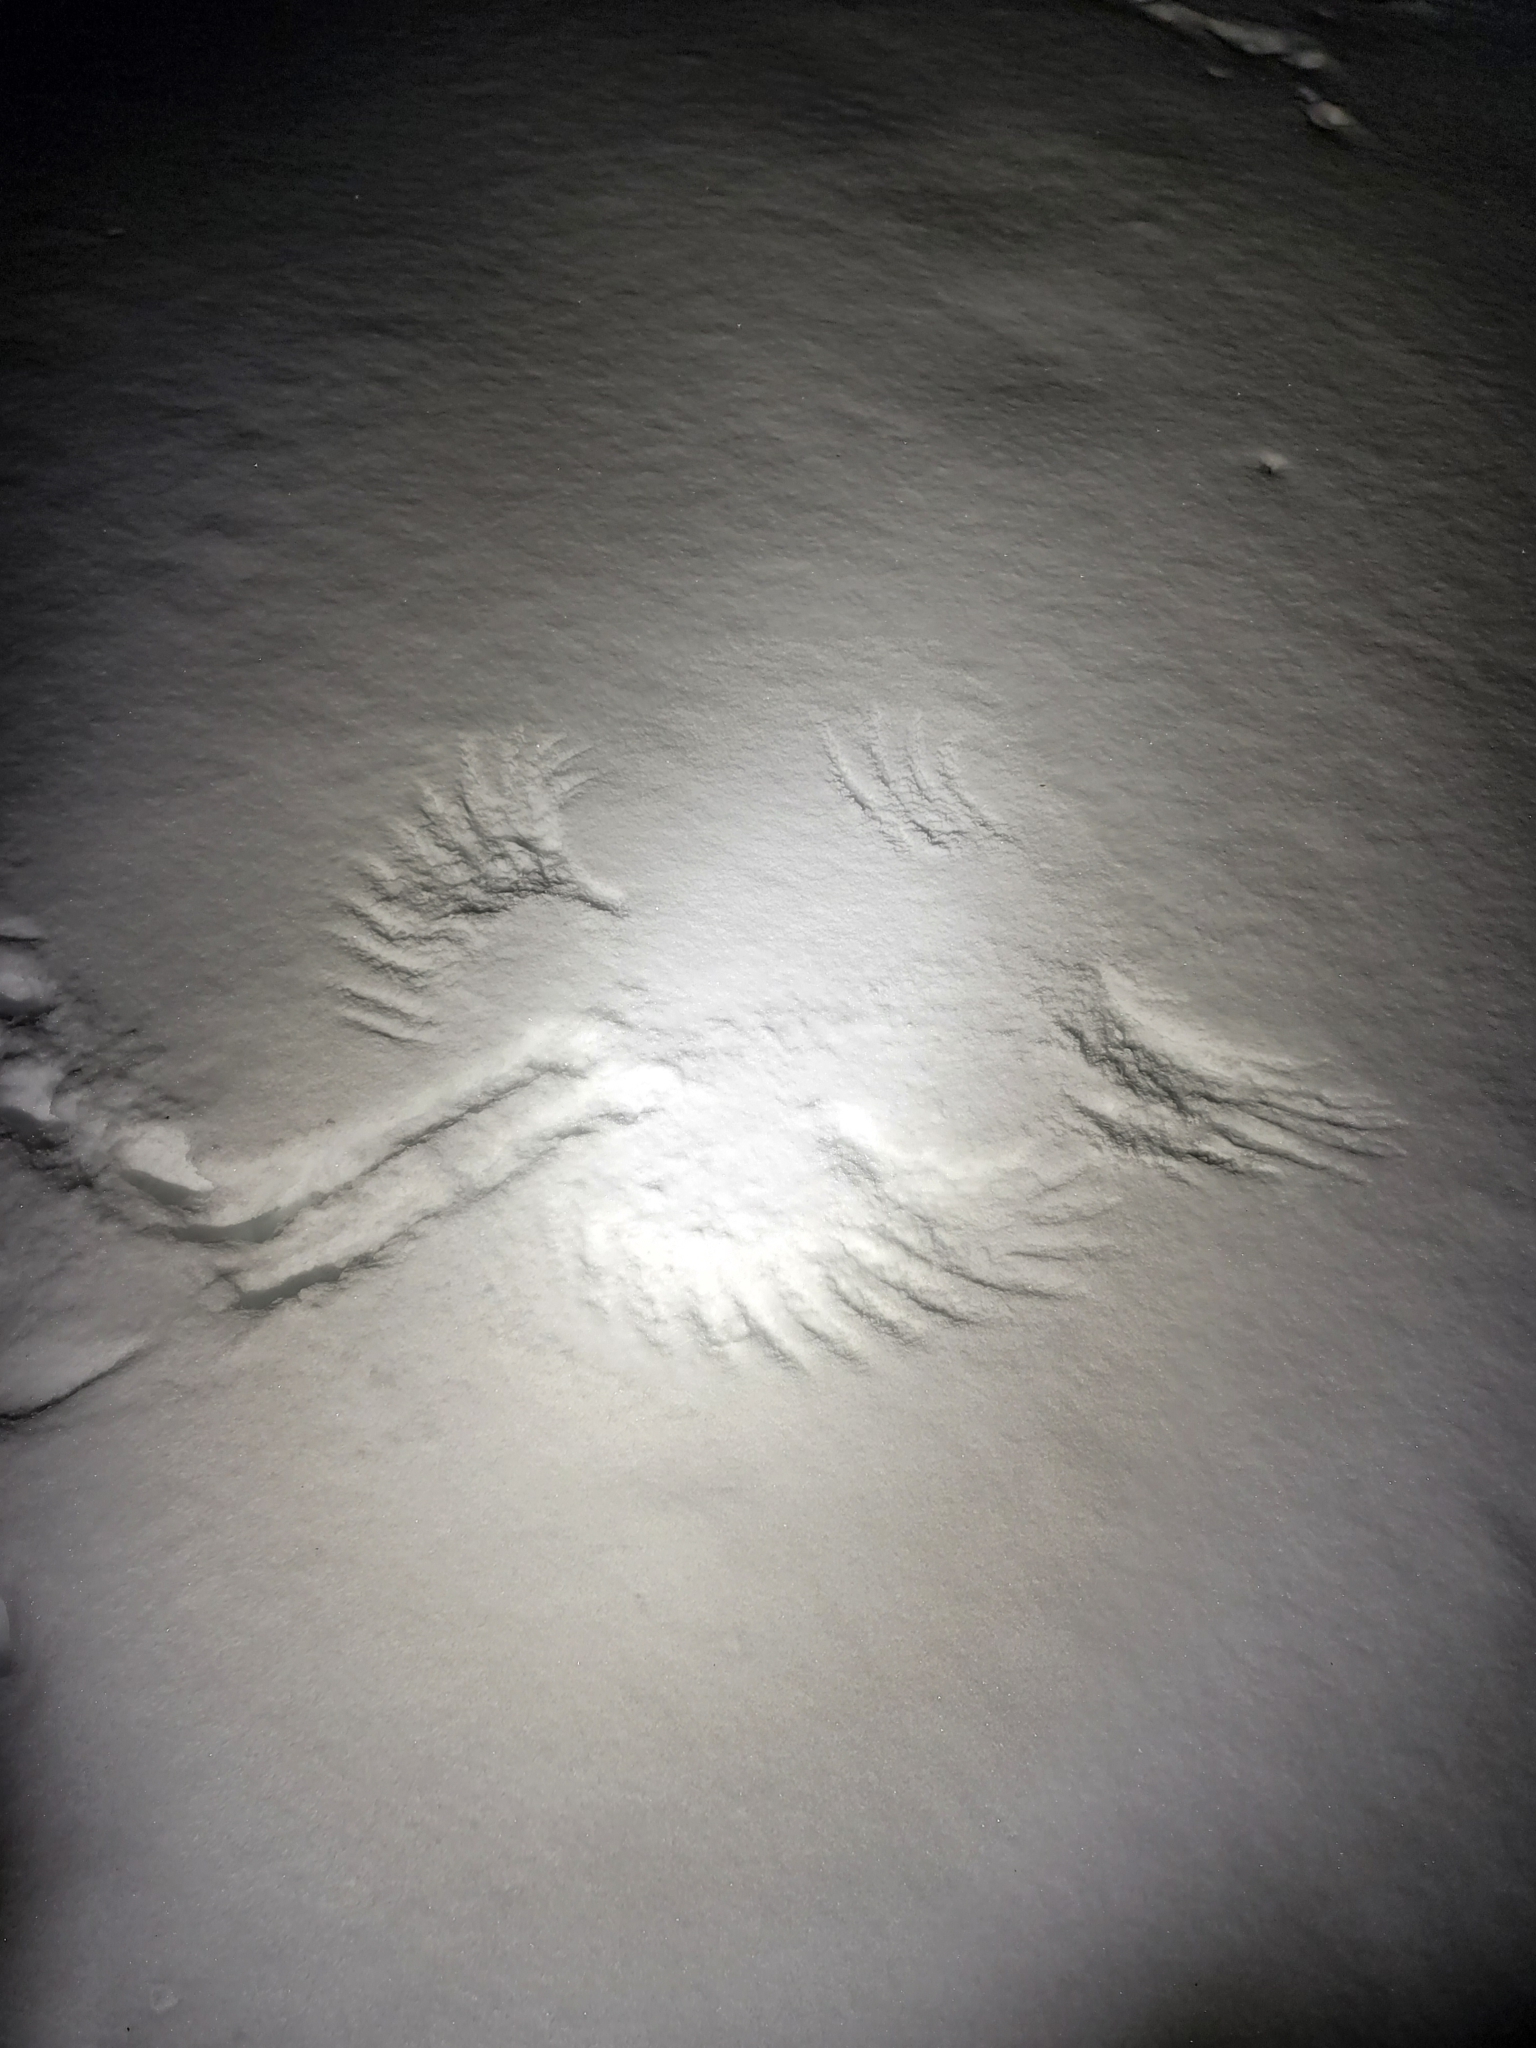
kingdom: Animalia
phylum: Chordata
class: Aves
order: Accipitriformes
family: Accipitridae
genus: Buteo
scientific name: Buteo jamaicensis
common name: Red-tailed hawk
